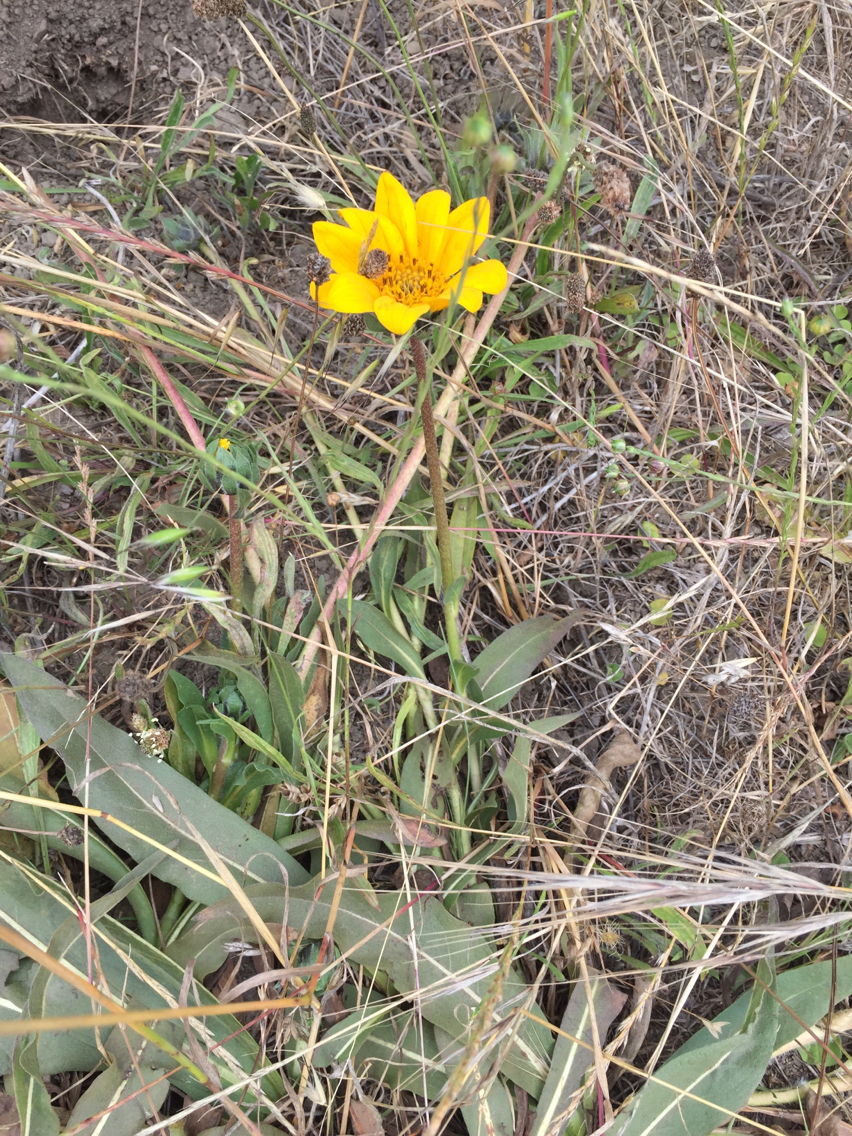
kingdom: Plantae
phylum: Tracheophyta
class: Magnoliopsida
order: Asterales
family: Asteraceae
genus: Wyethia
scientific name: Wyethia angustifolia
